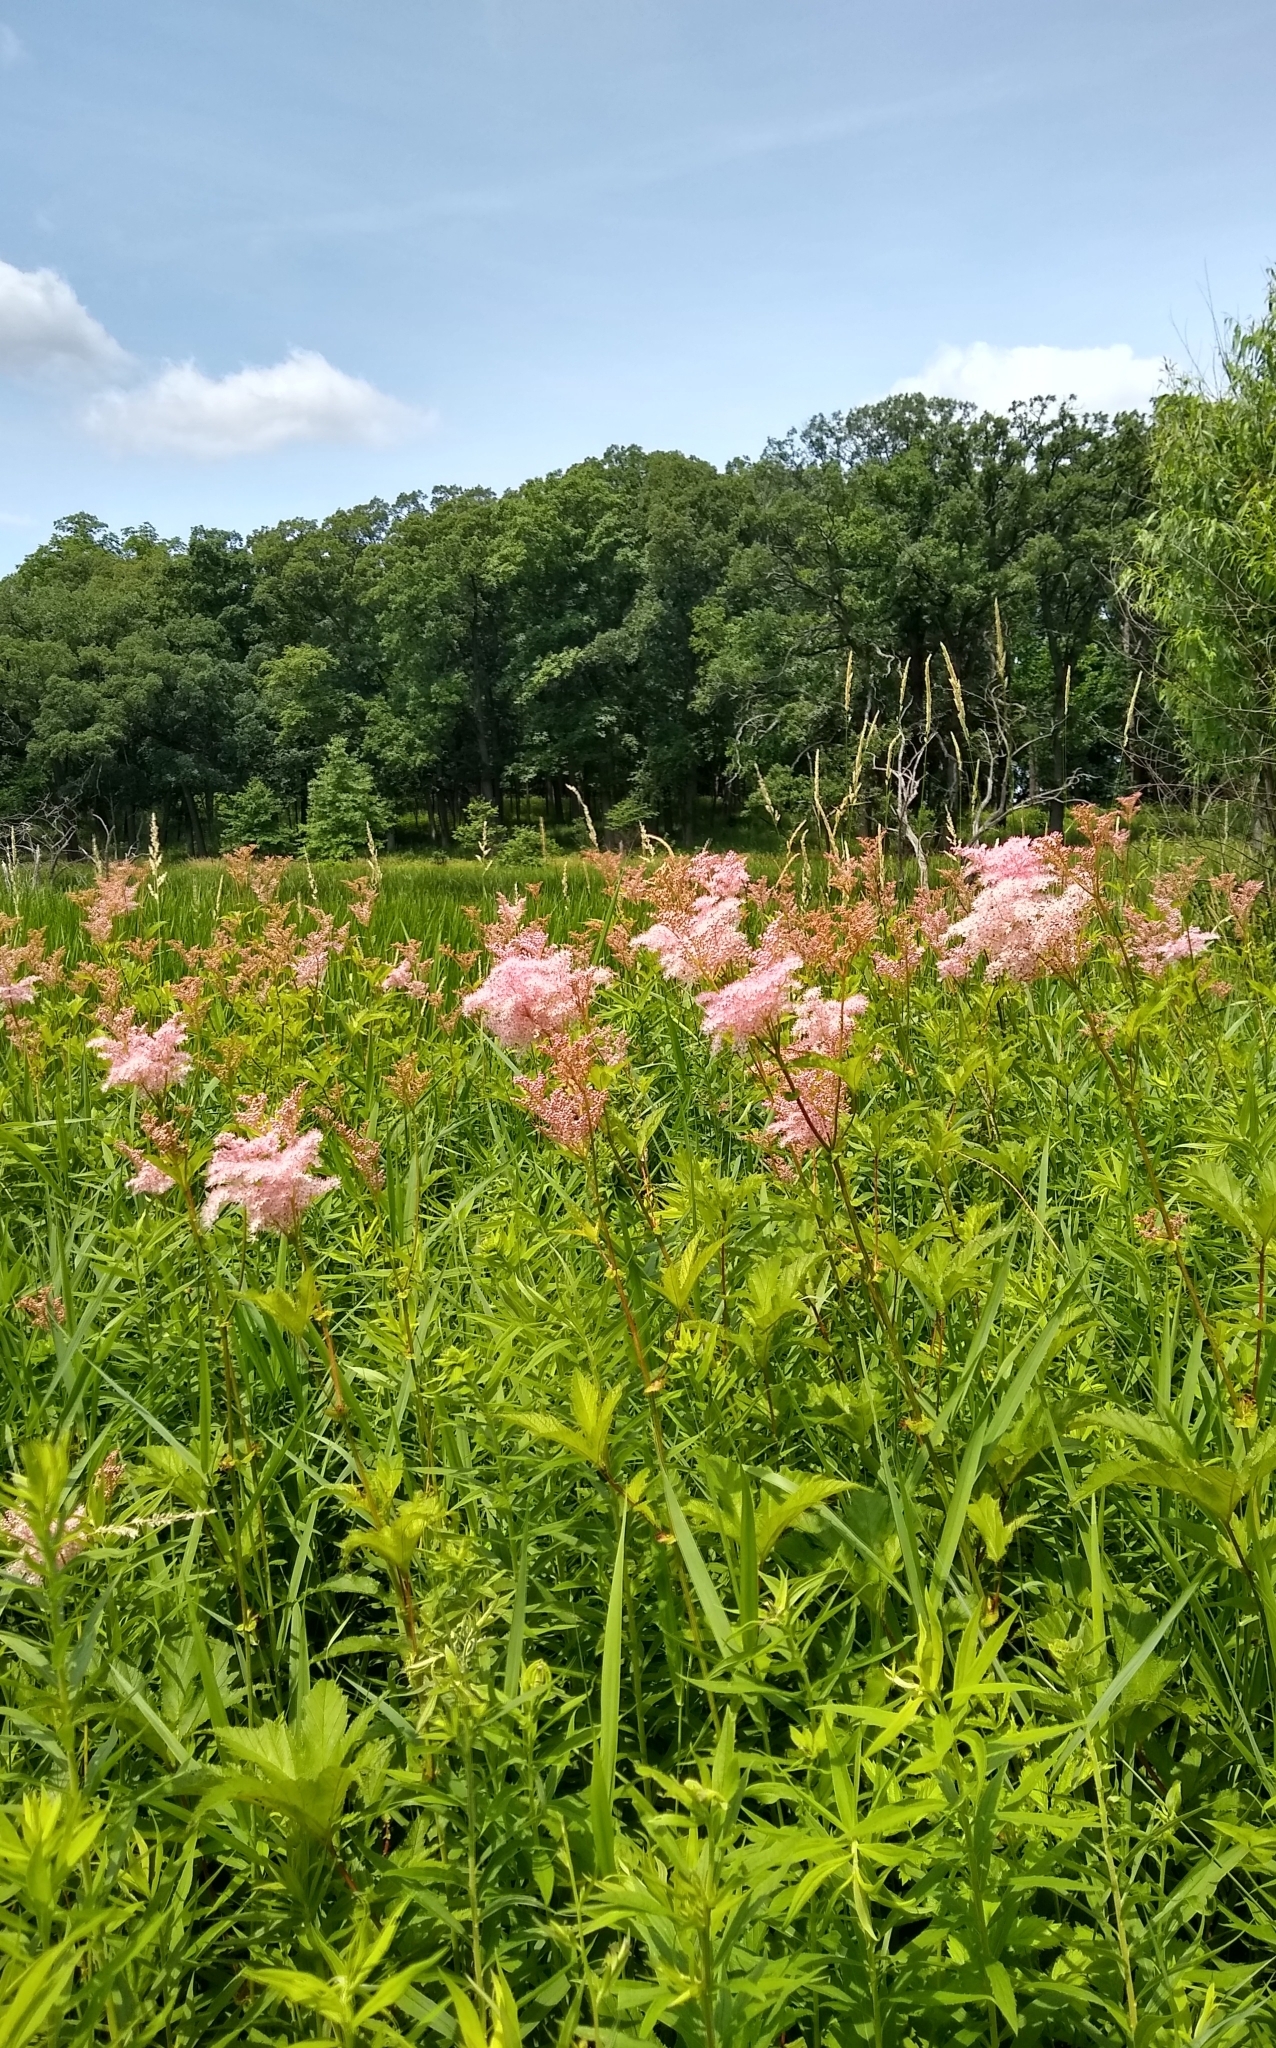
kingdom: Plantae
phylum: Tracheophyta
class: Magnoliopsida
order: Rosales
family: Rosaceae
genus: Filipendula
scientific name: Filipendula rubra
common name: Queen-of-the-prairie
